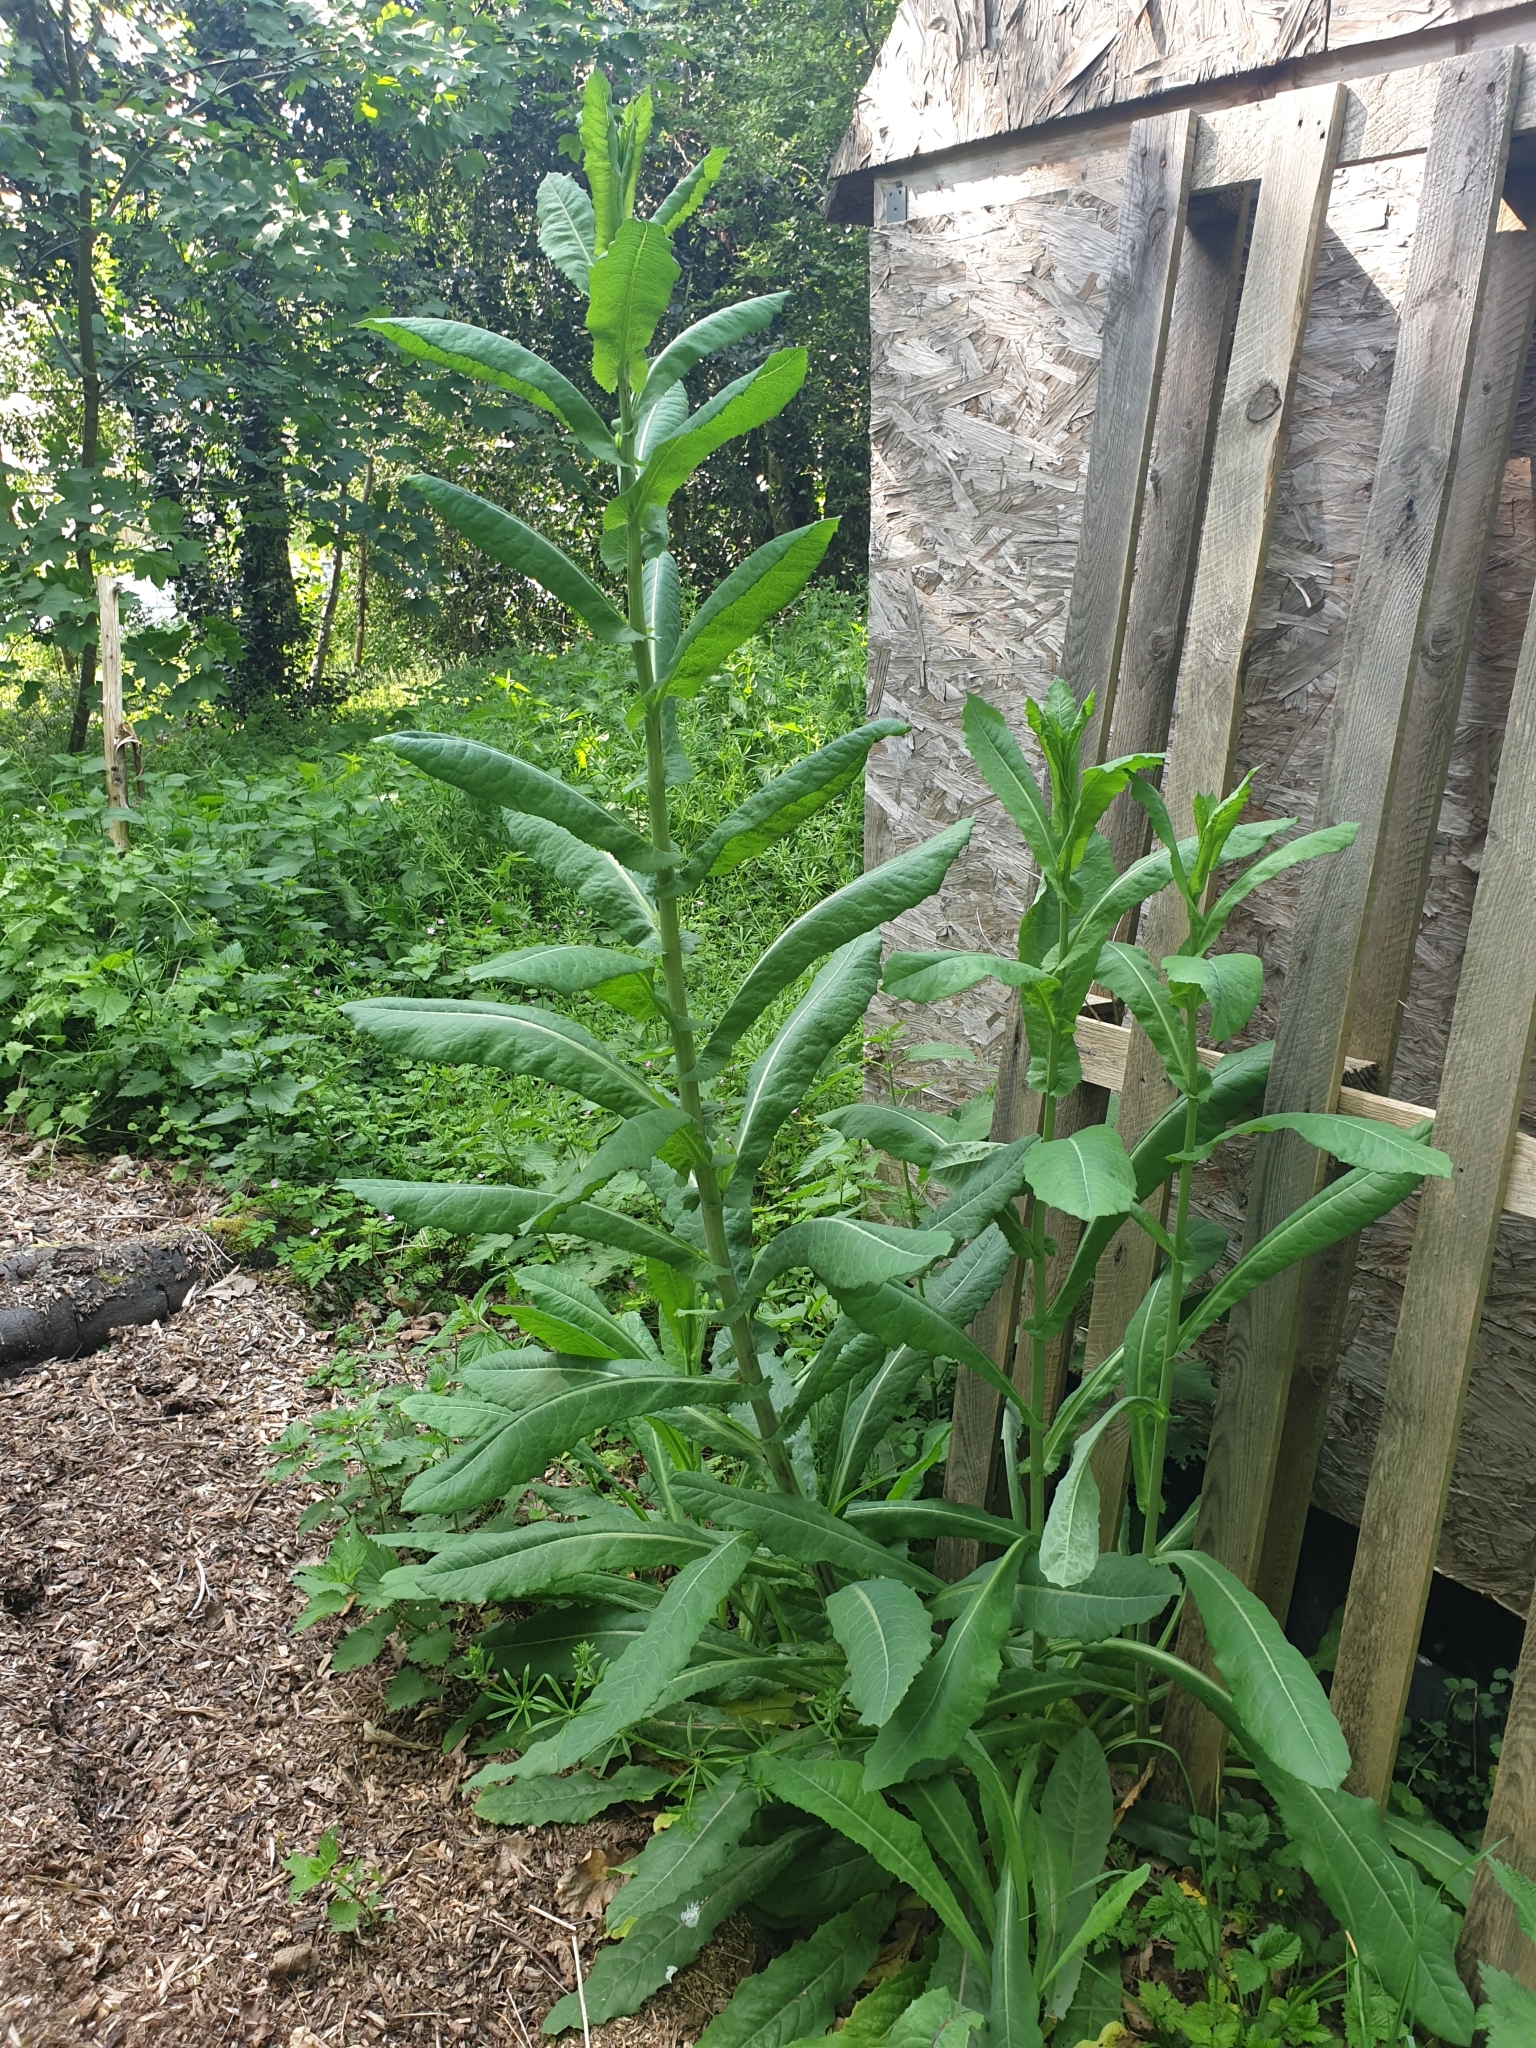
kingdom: Plantae
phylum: Tracheophyta
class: Magnoliopsida
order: Asterales
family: Asteraceae
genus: Lactuca
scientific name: Lactuca virosa
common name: Great lettuce
